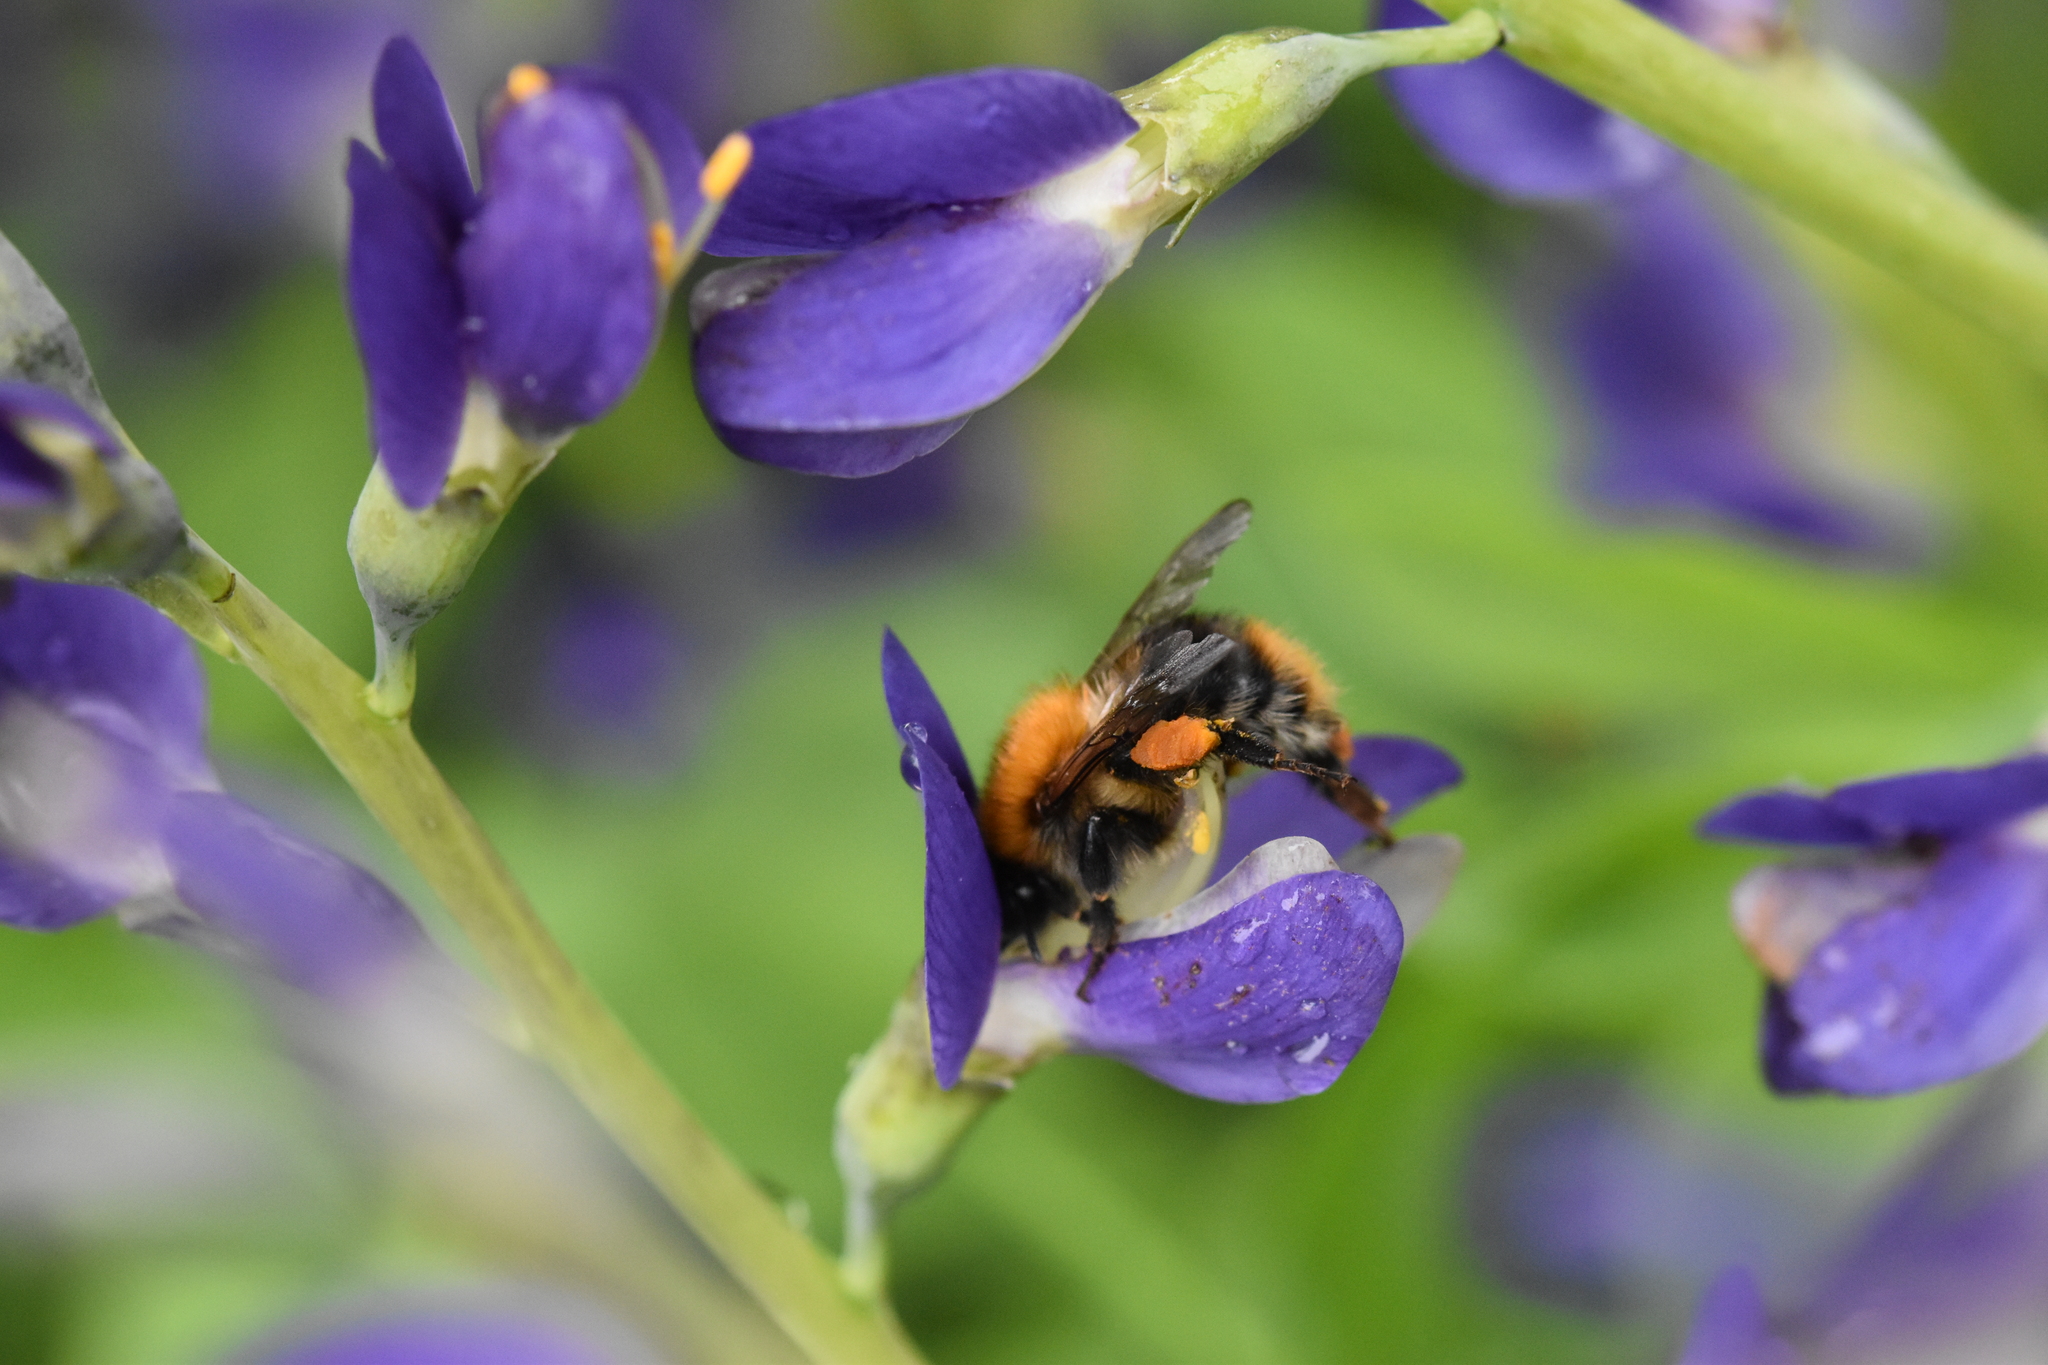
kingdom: Animalia
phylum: Arthropoda
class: Insecta
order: Hymenoptera
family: Apidae
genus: Bombus
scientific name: Bombus pascuorum
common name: Common carder bee
